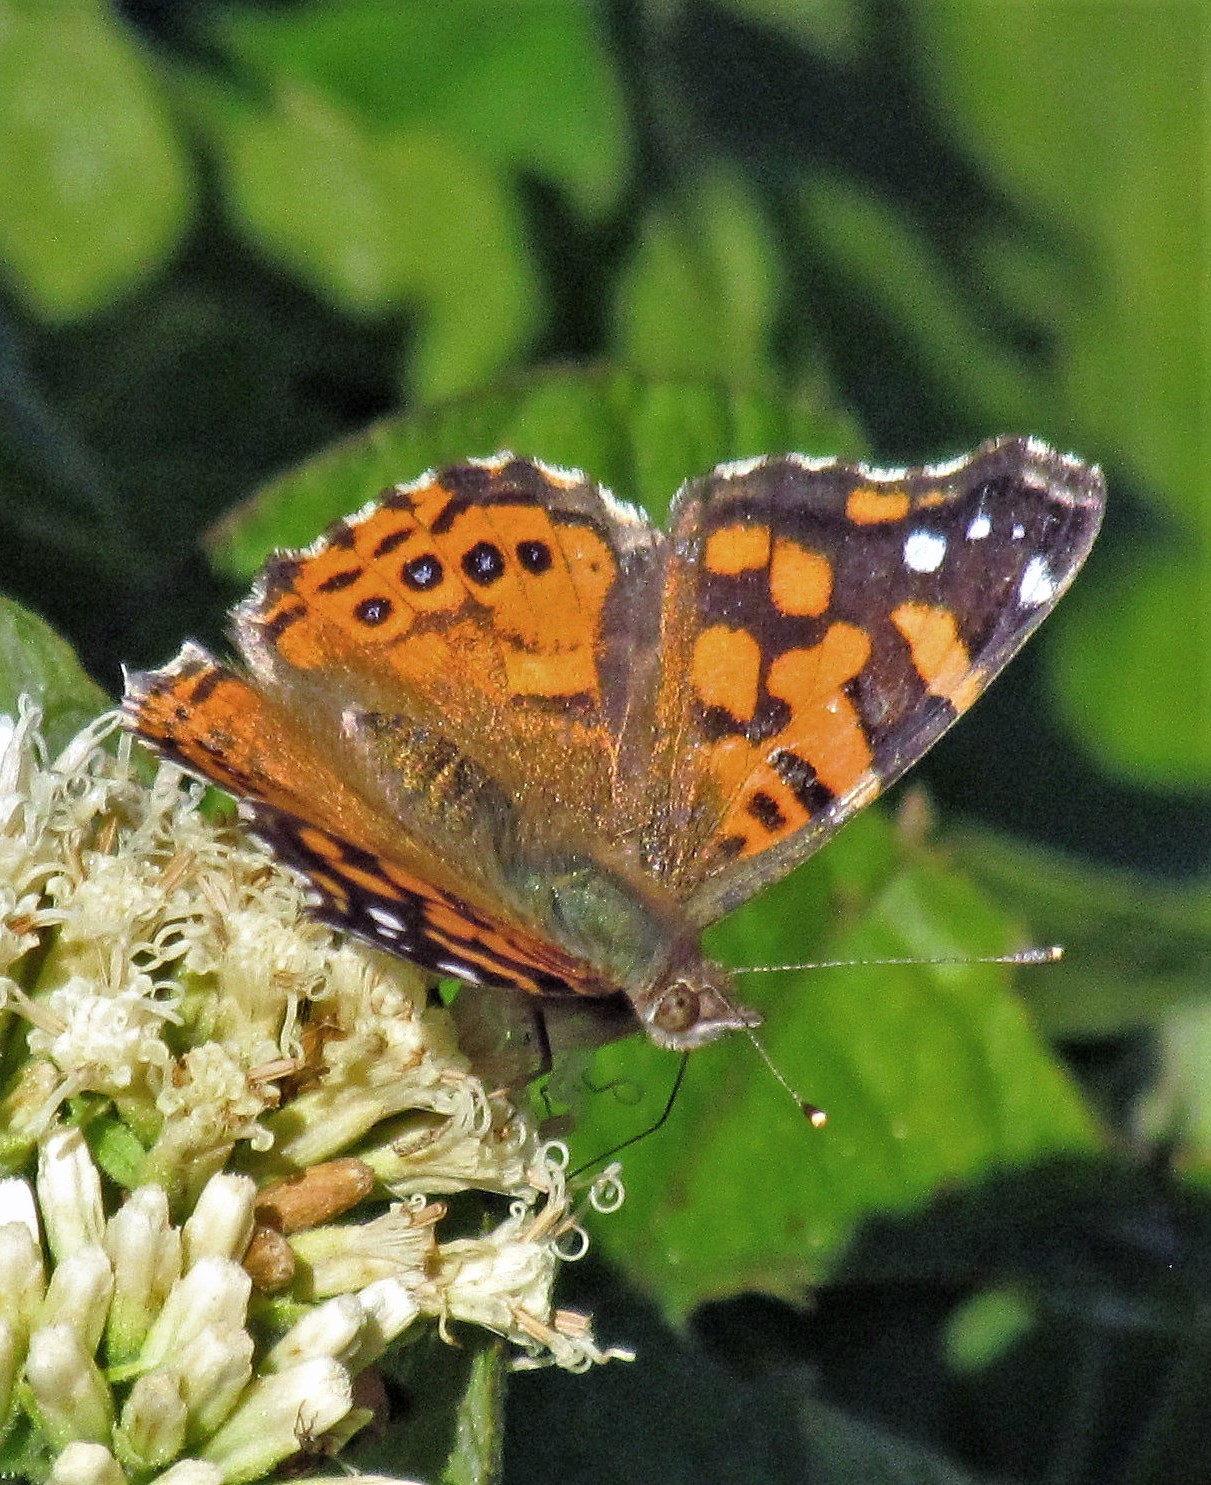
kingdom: Animalia
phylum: Arthropoda
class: Insecta
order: Lepidoptera
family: Nymphalidae
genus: Vanessa
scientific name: Vanessa carye
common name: Subtropical lady
